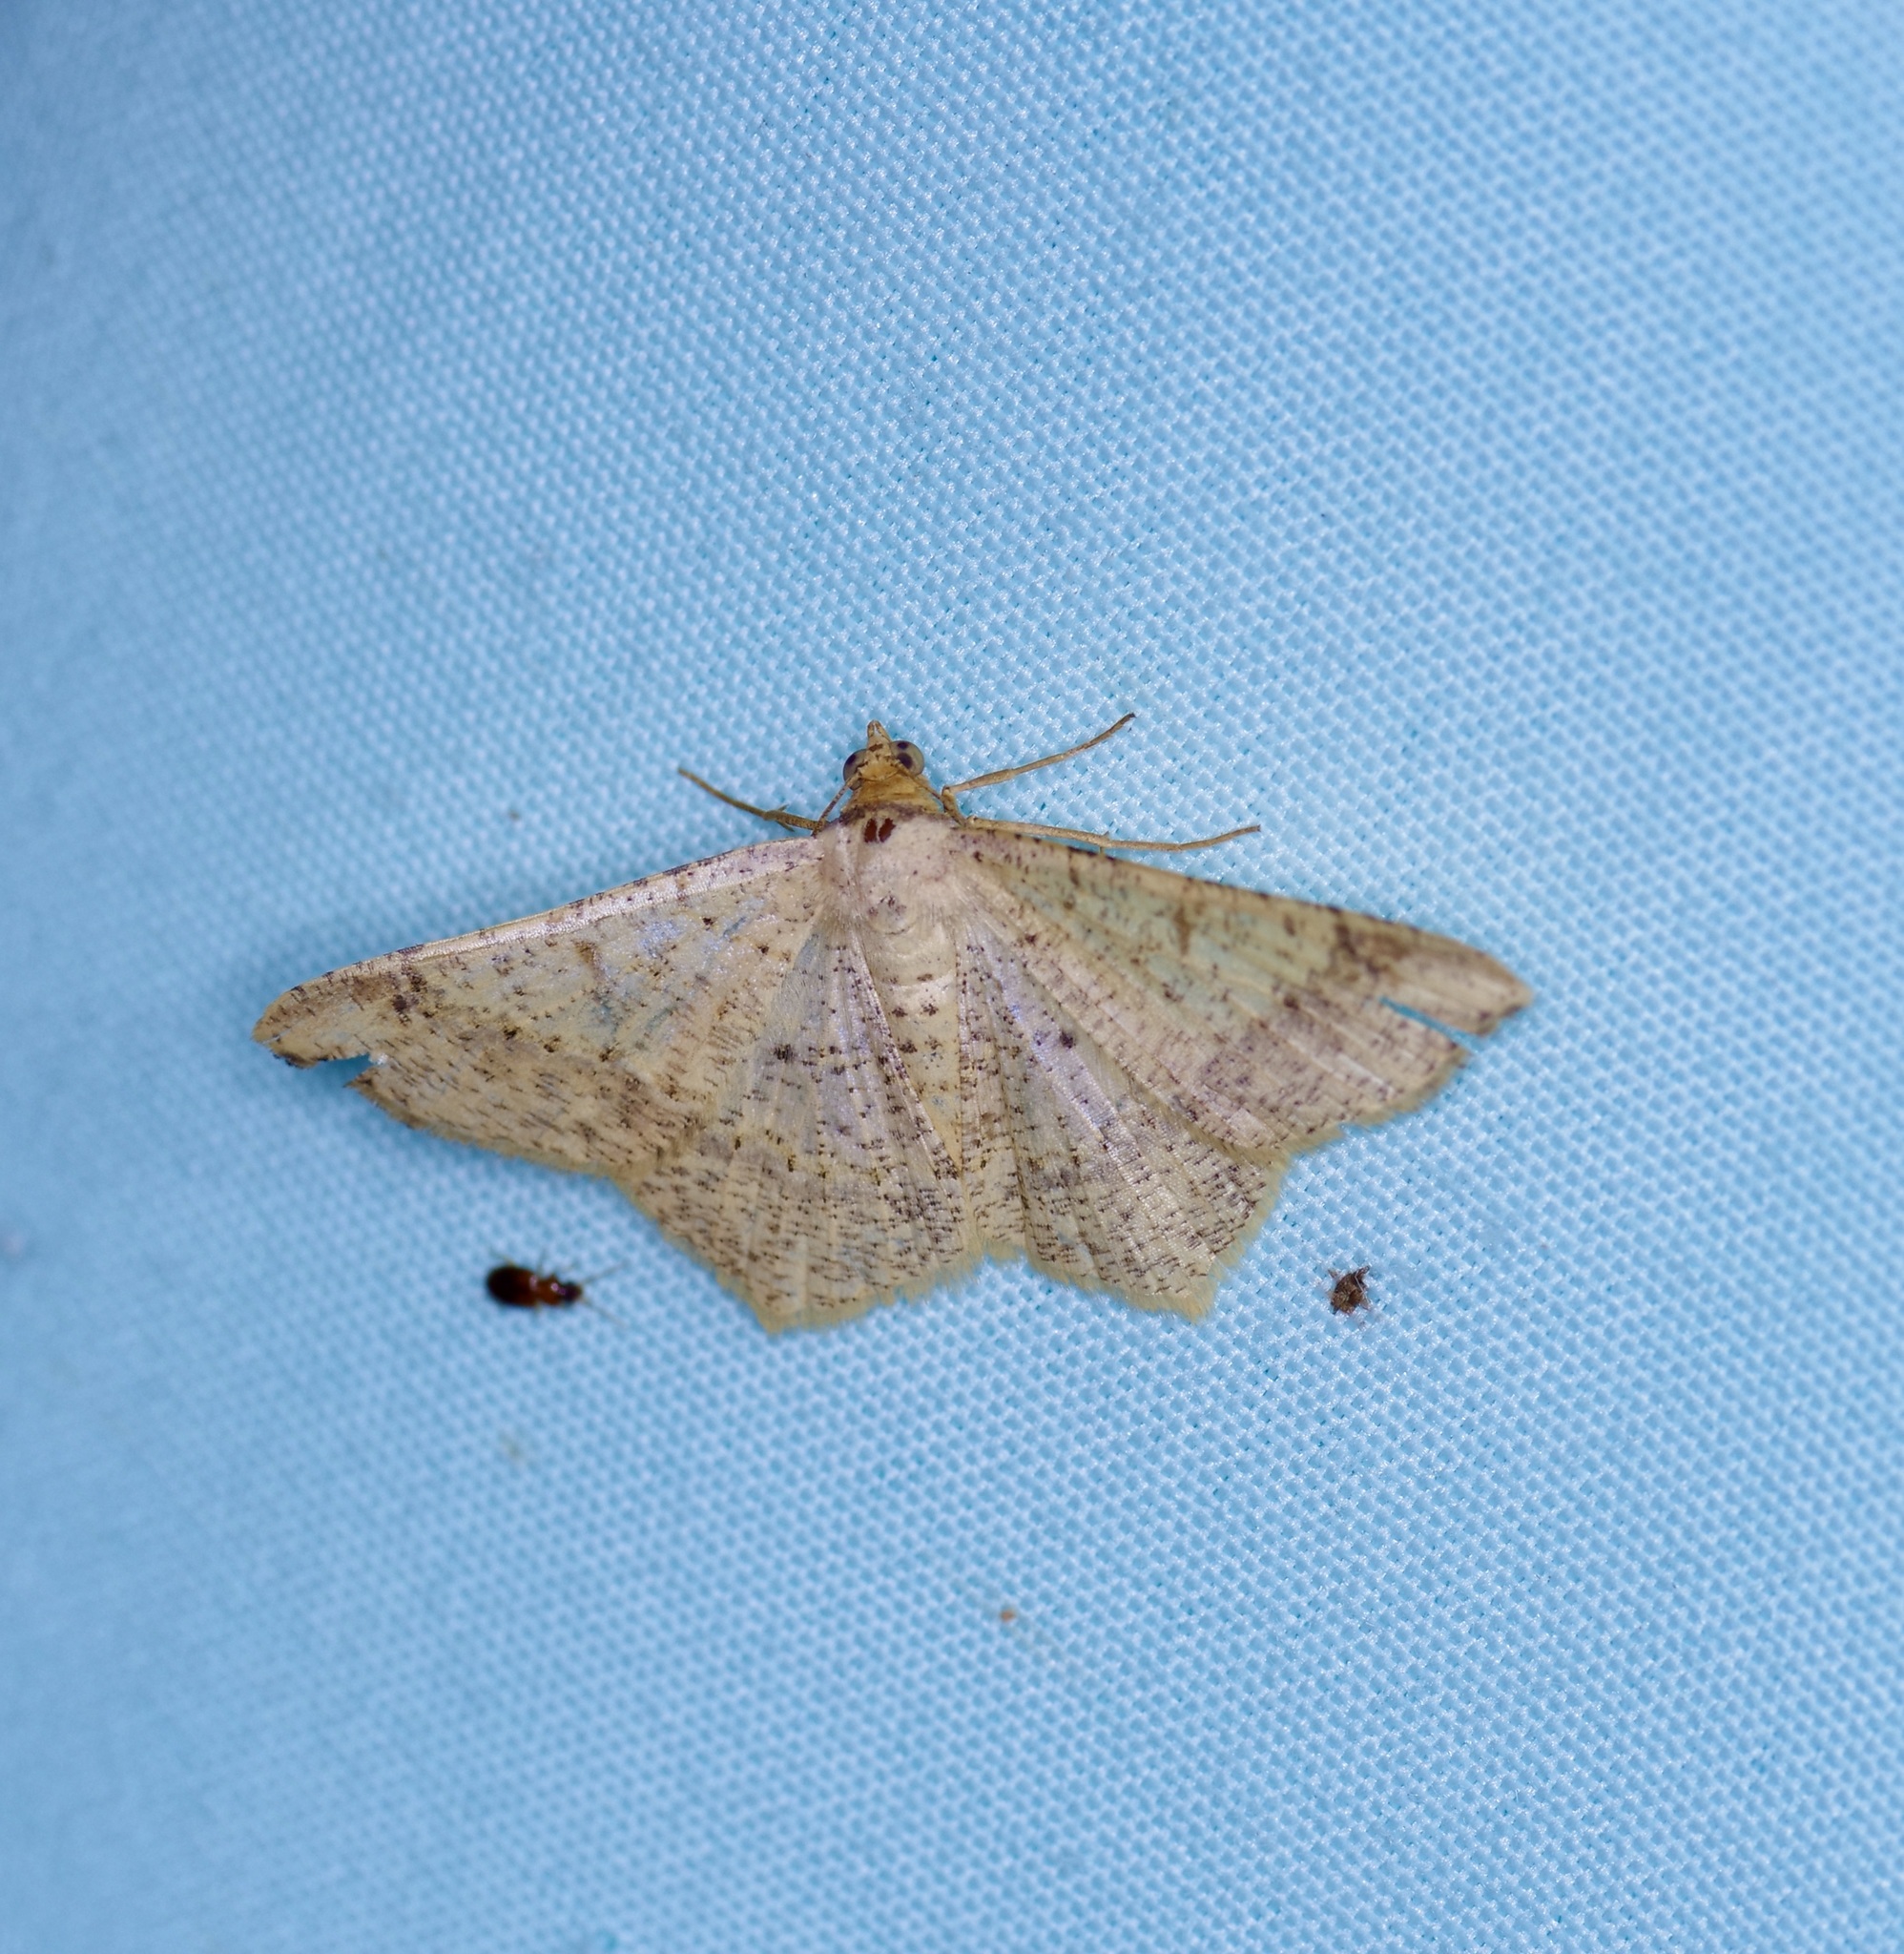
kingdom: Animalia
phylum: Arthropoda
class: Insecta
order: Lepidoptera
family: Geometridae
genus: Macaria
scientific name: Macaria abydata
